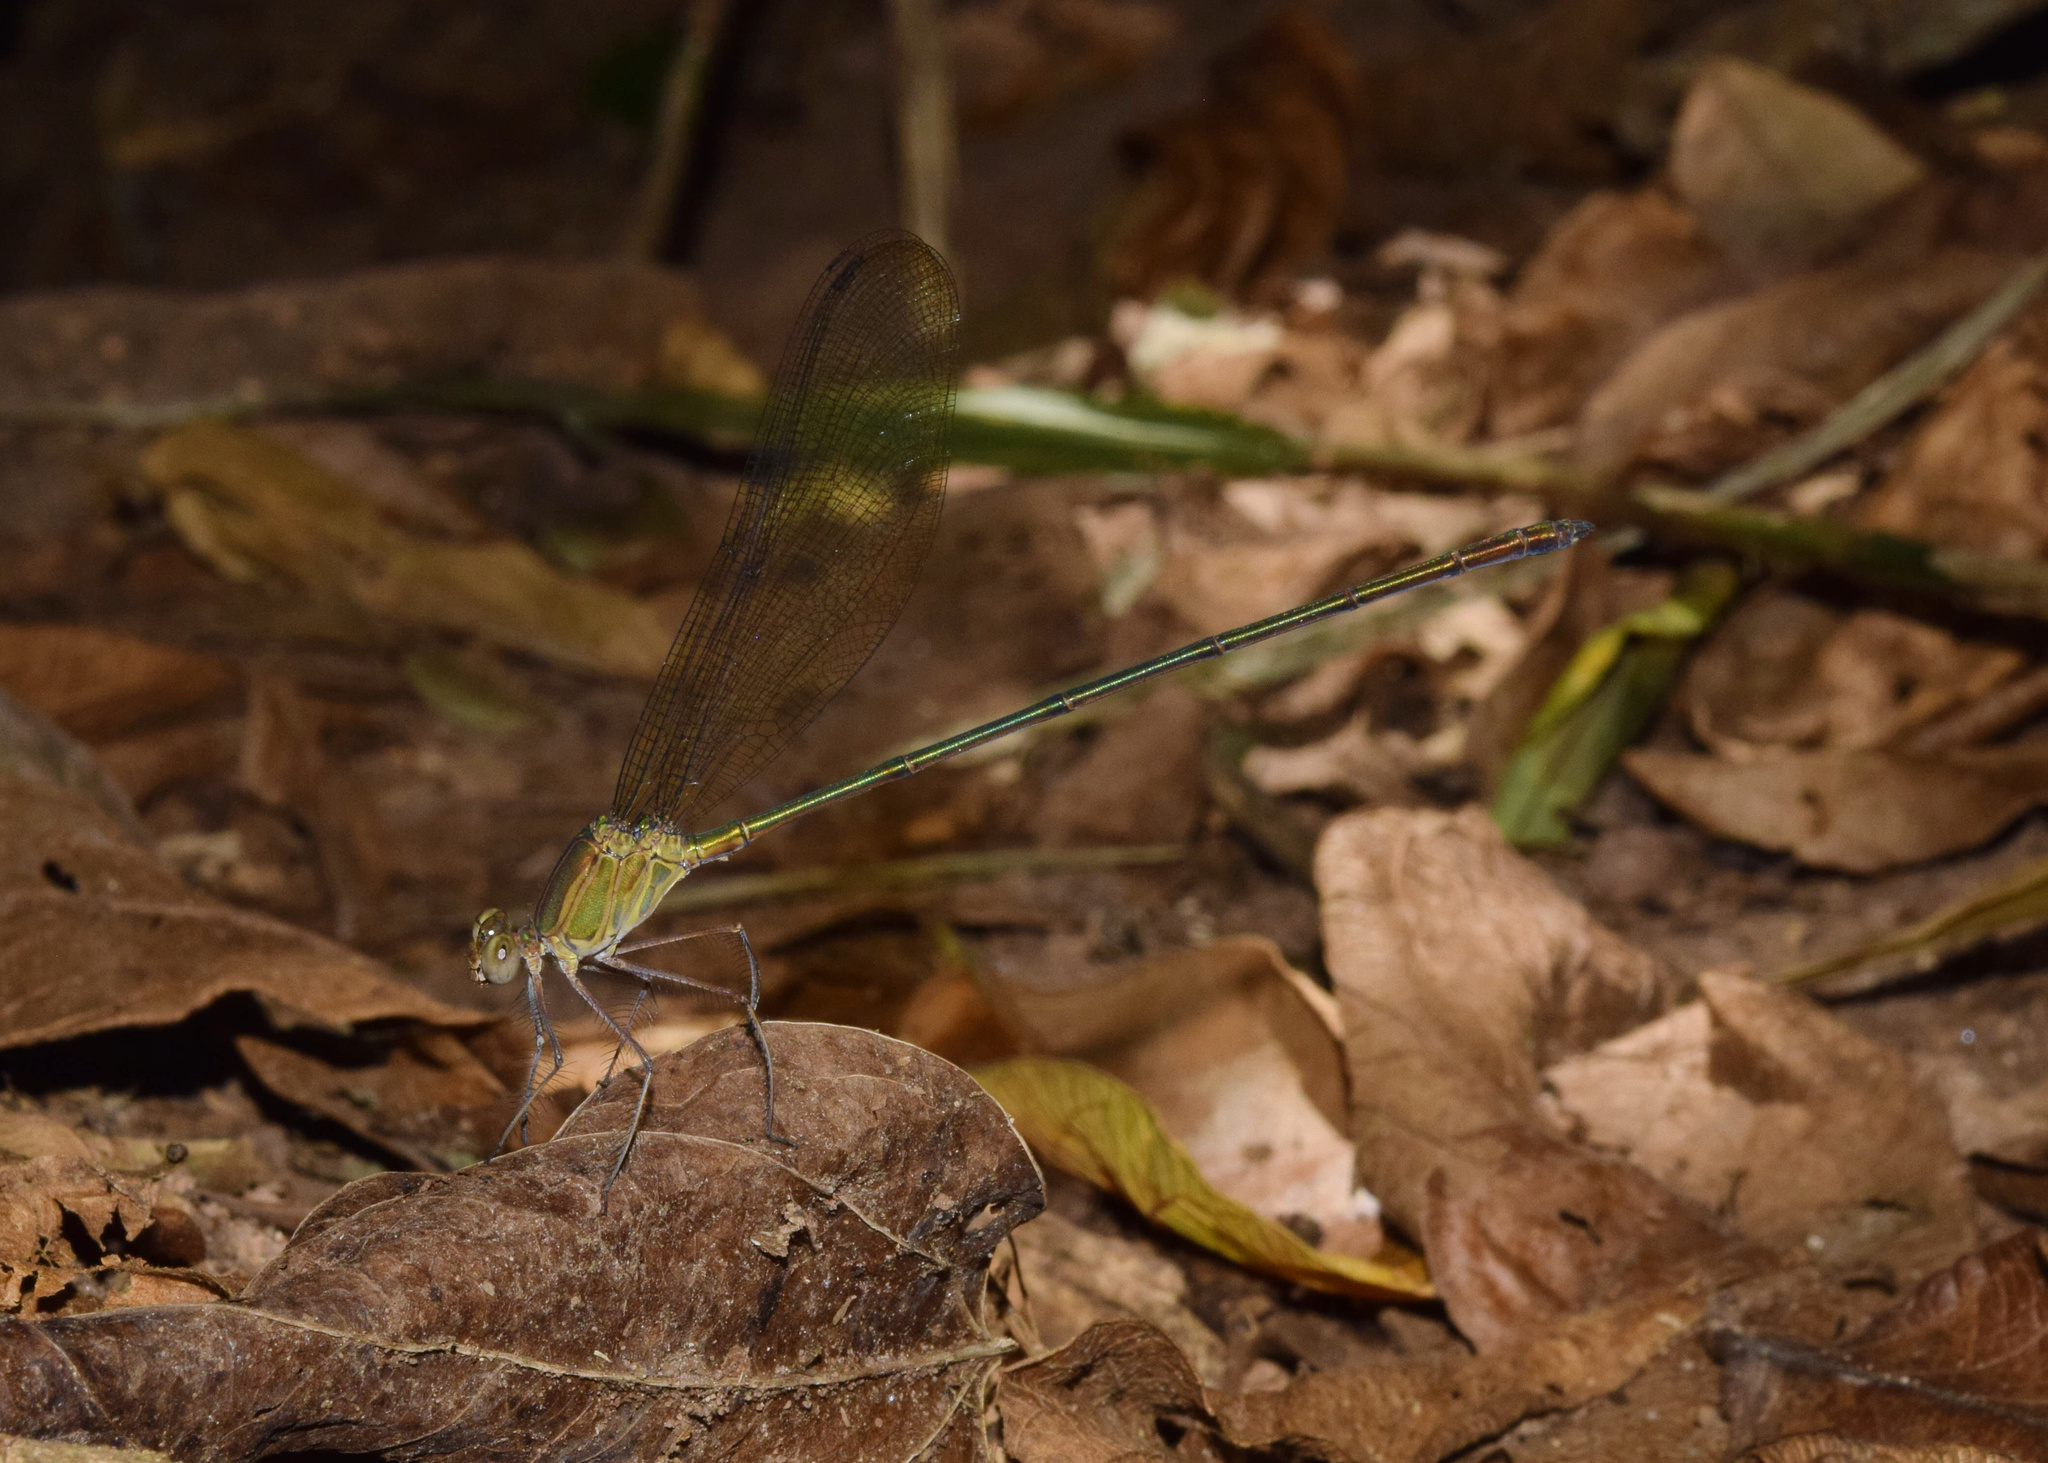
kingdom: Animalia
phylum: Arthropoda
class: Insecta
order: Odonata
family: Calopterygidae
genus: Phaon
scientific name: Phaon iridipennis
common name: Glistening demoiselle
